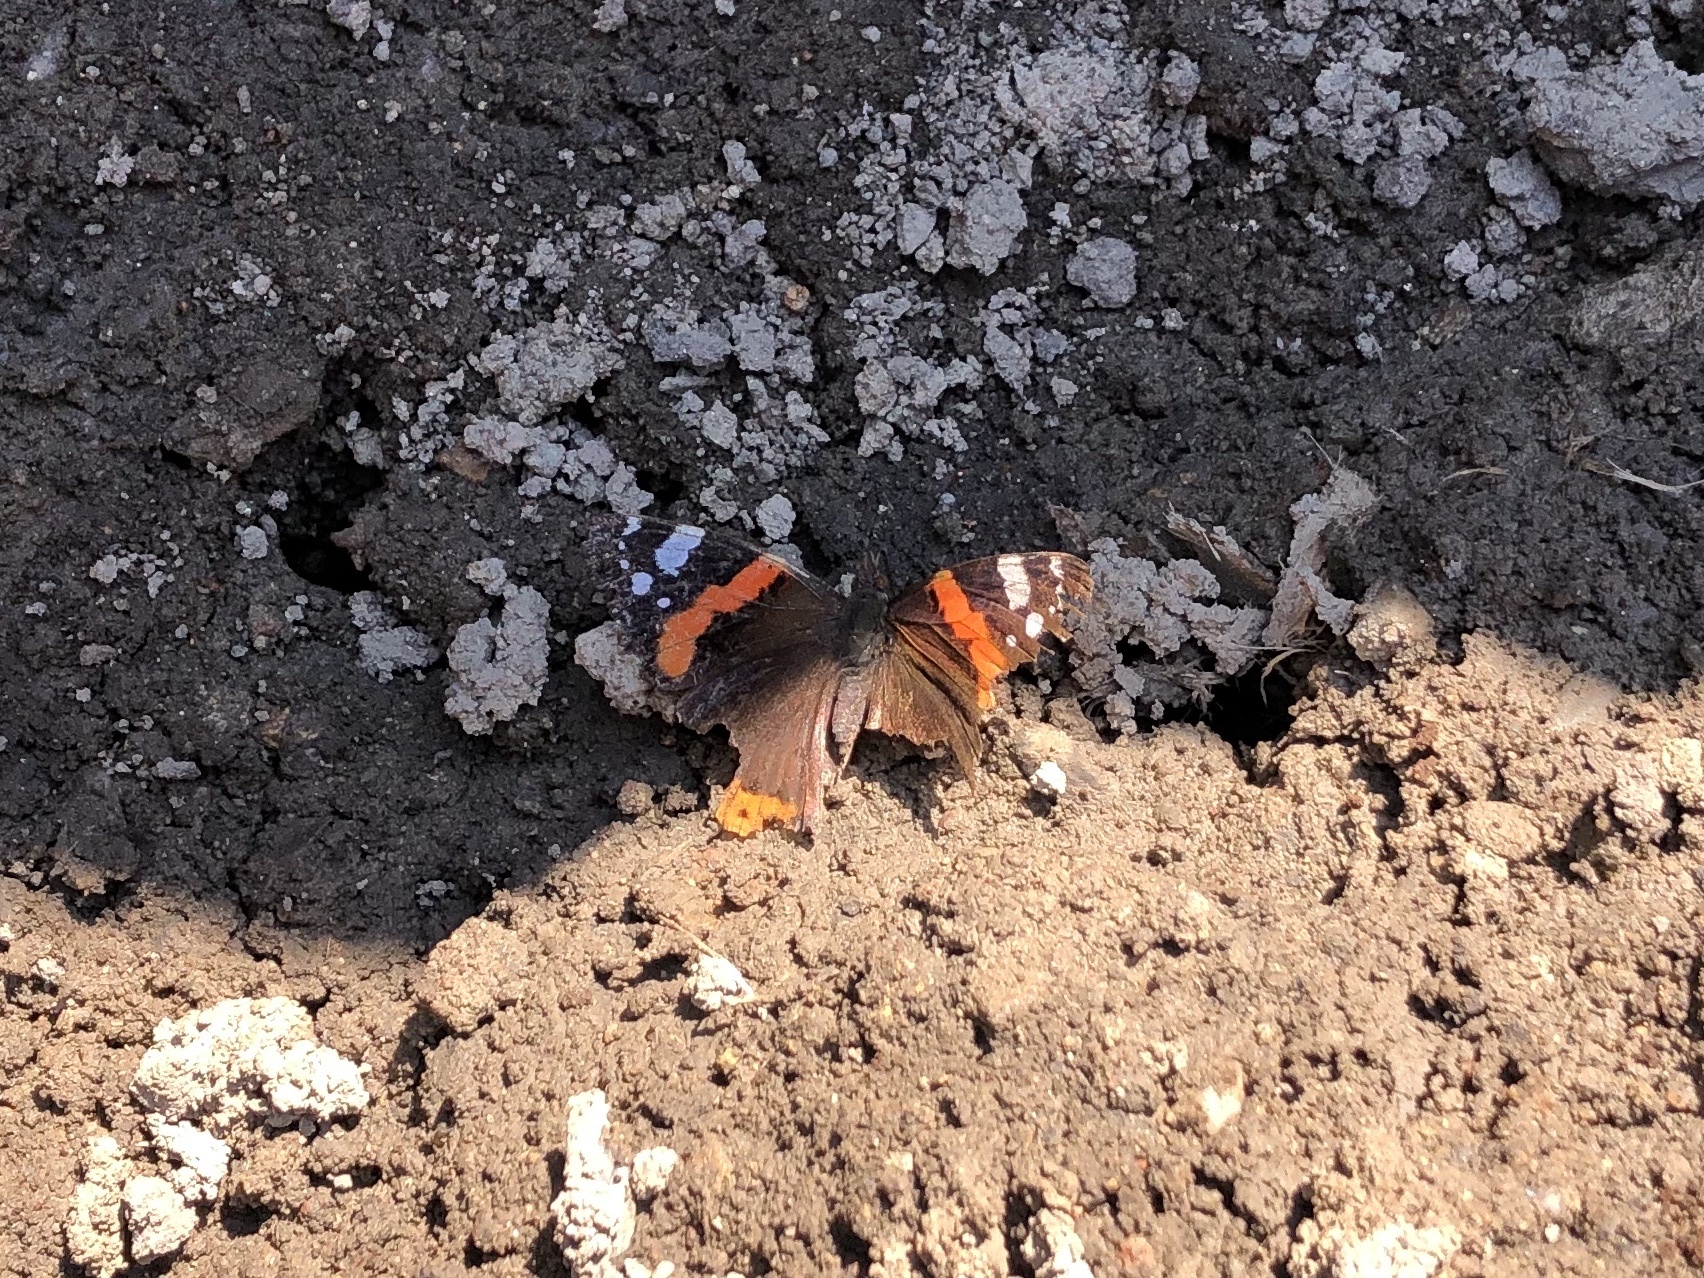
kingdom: Animalia
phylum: Arthropoda
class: Insecta
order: Lepidoptera
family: Nymphalidae
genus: Vanessa
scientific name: Vanessa atalanta
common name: Red admiral
